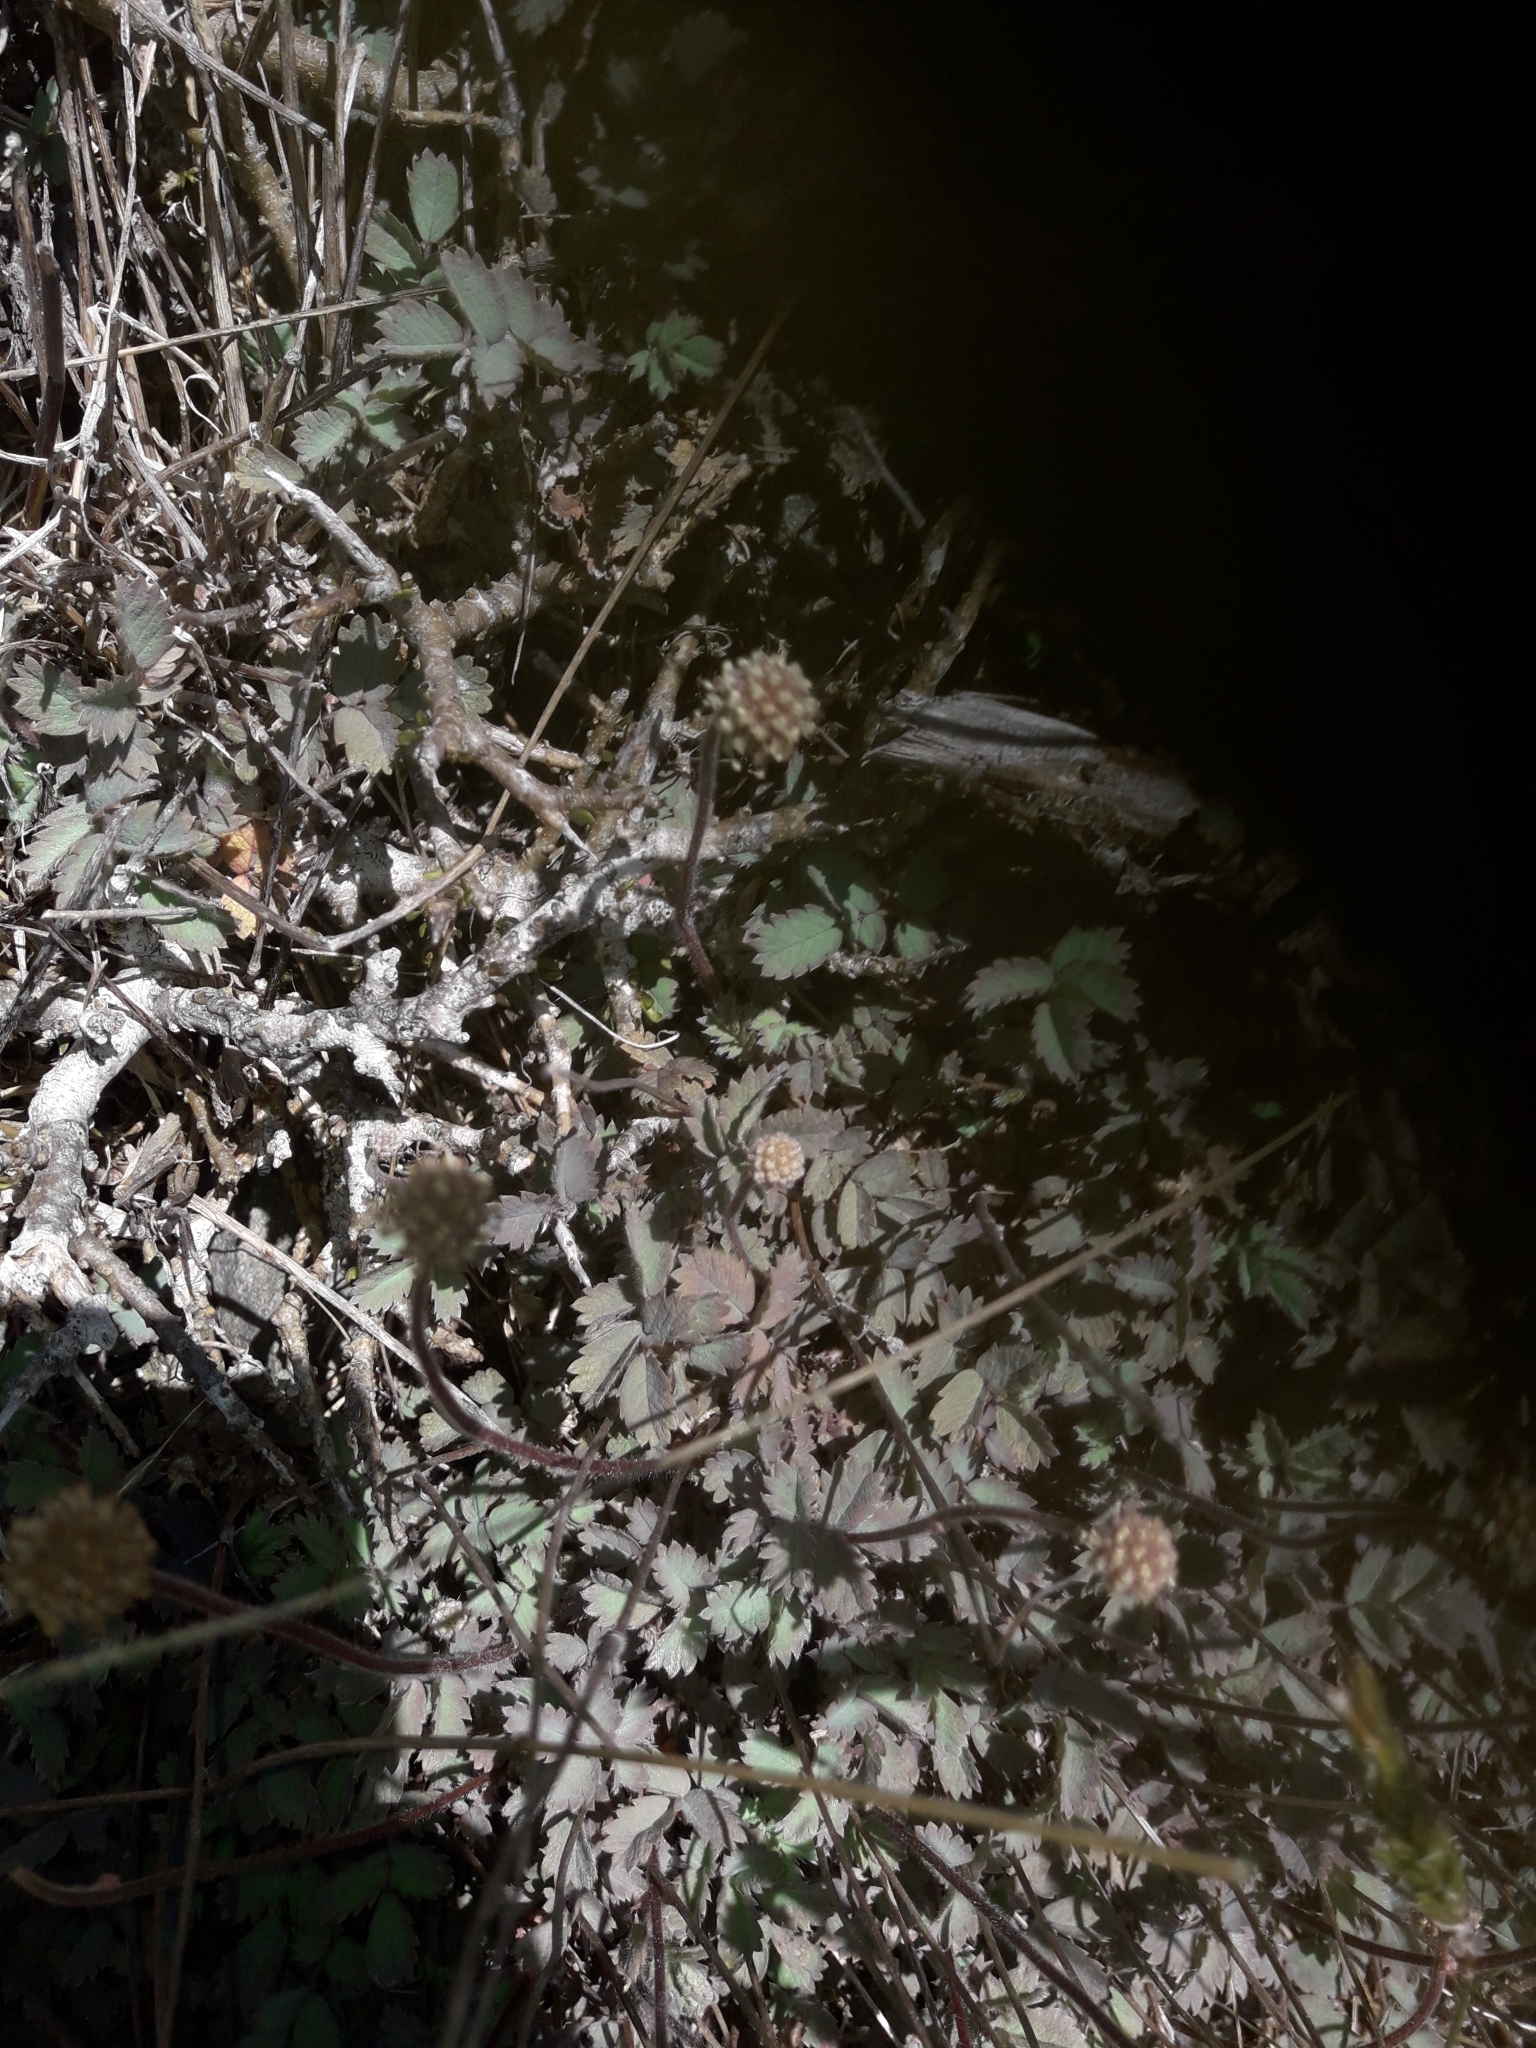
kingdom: Plantae
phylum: Tracheophyta
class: Magnoliopsida
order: Rosales
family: Rosaceae
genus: Acaena
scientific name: Acaena caesiiglauca
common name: Glaucous pirri-pirri-bur
